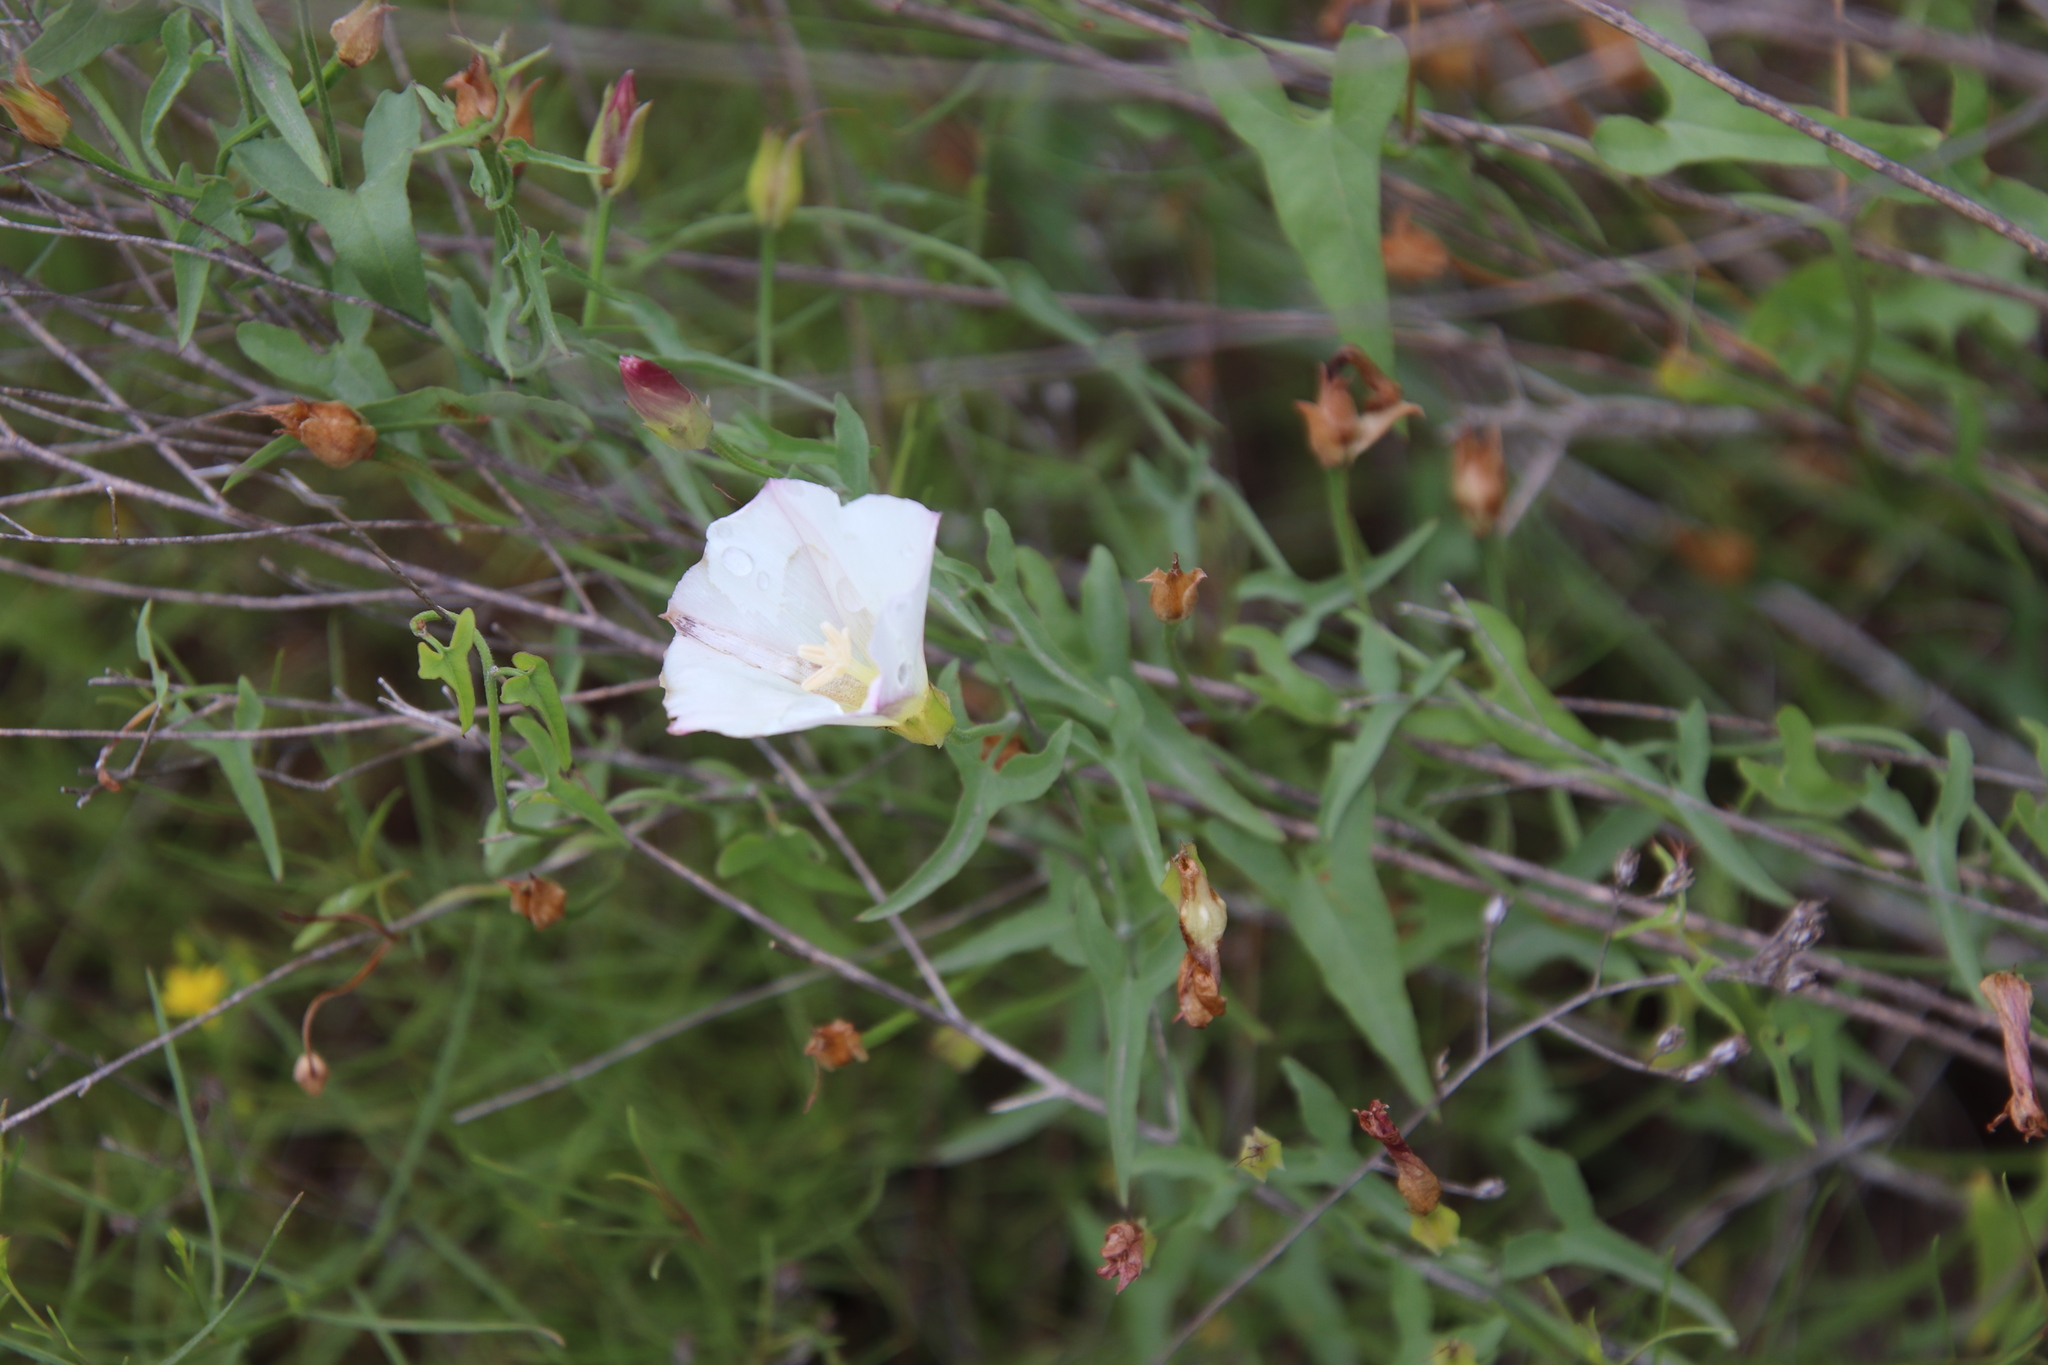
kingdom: Plantae
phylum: Tracheophyta
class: Magnoliopsida
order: Solanales
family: Convolvulaceae
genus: Calystegia
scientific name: Calystegia macrostegia
